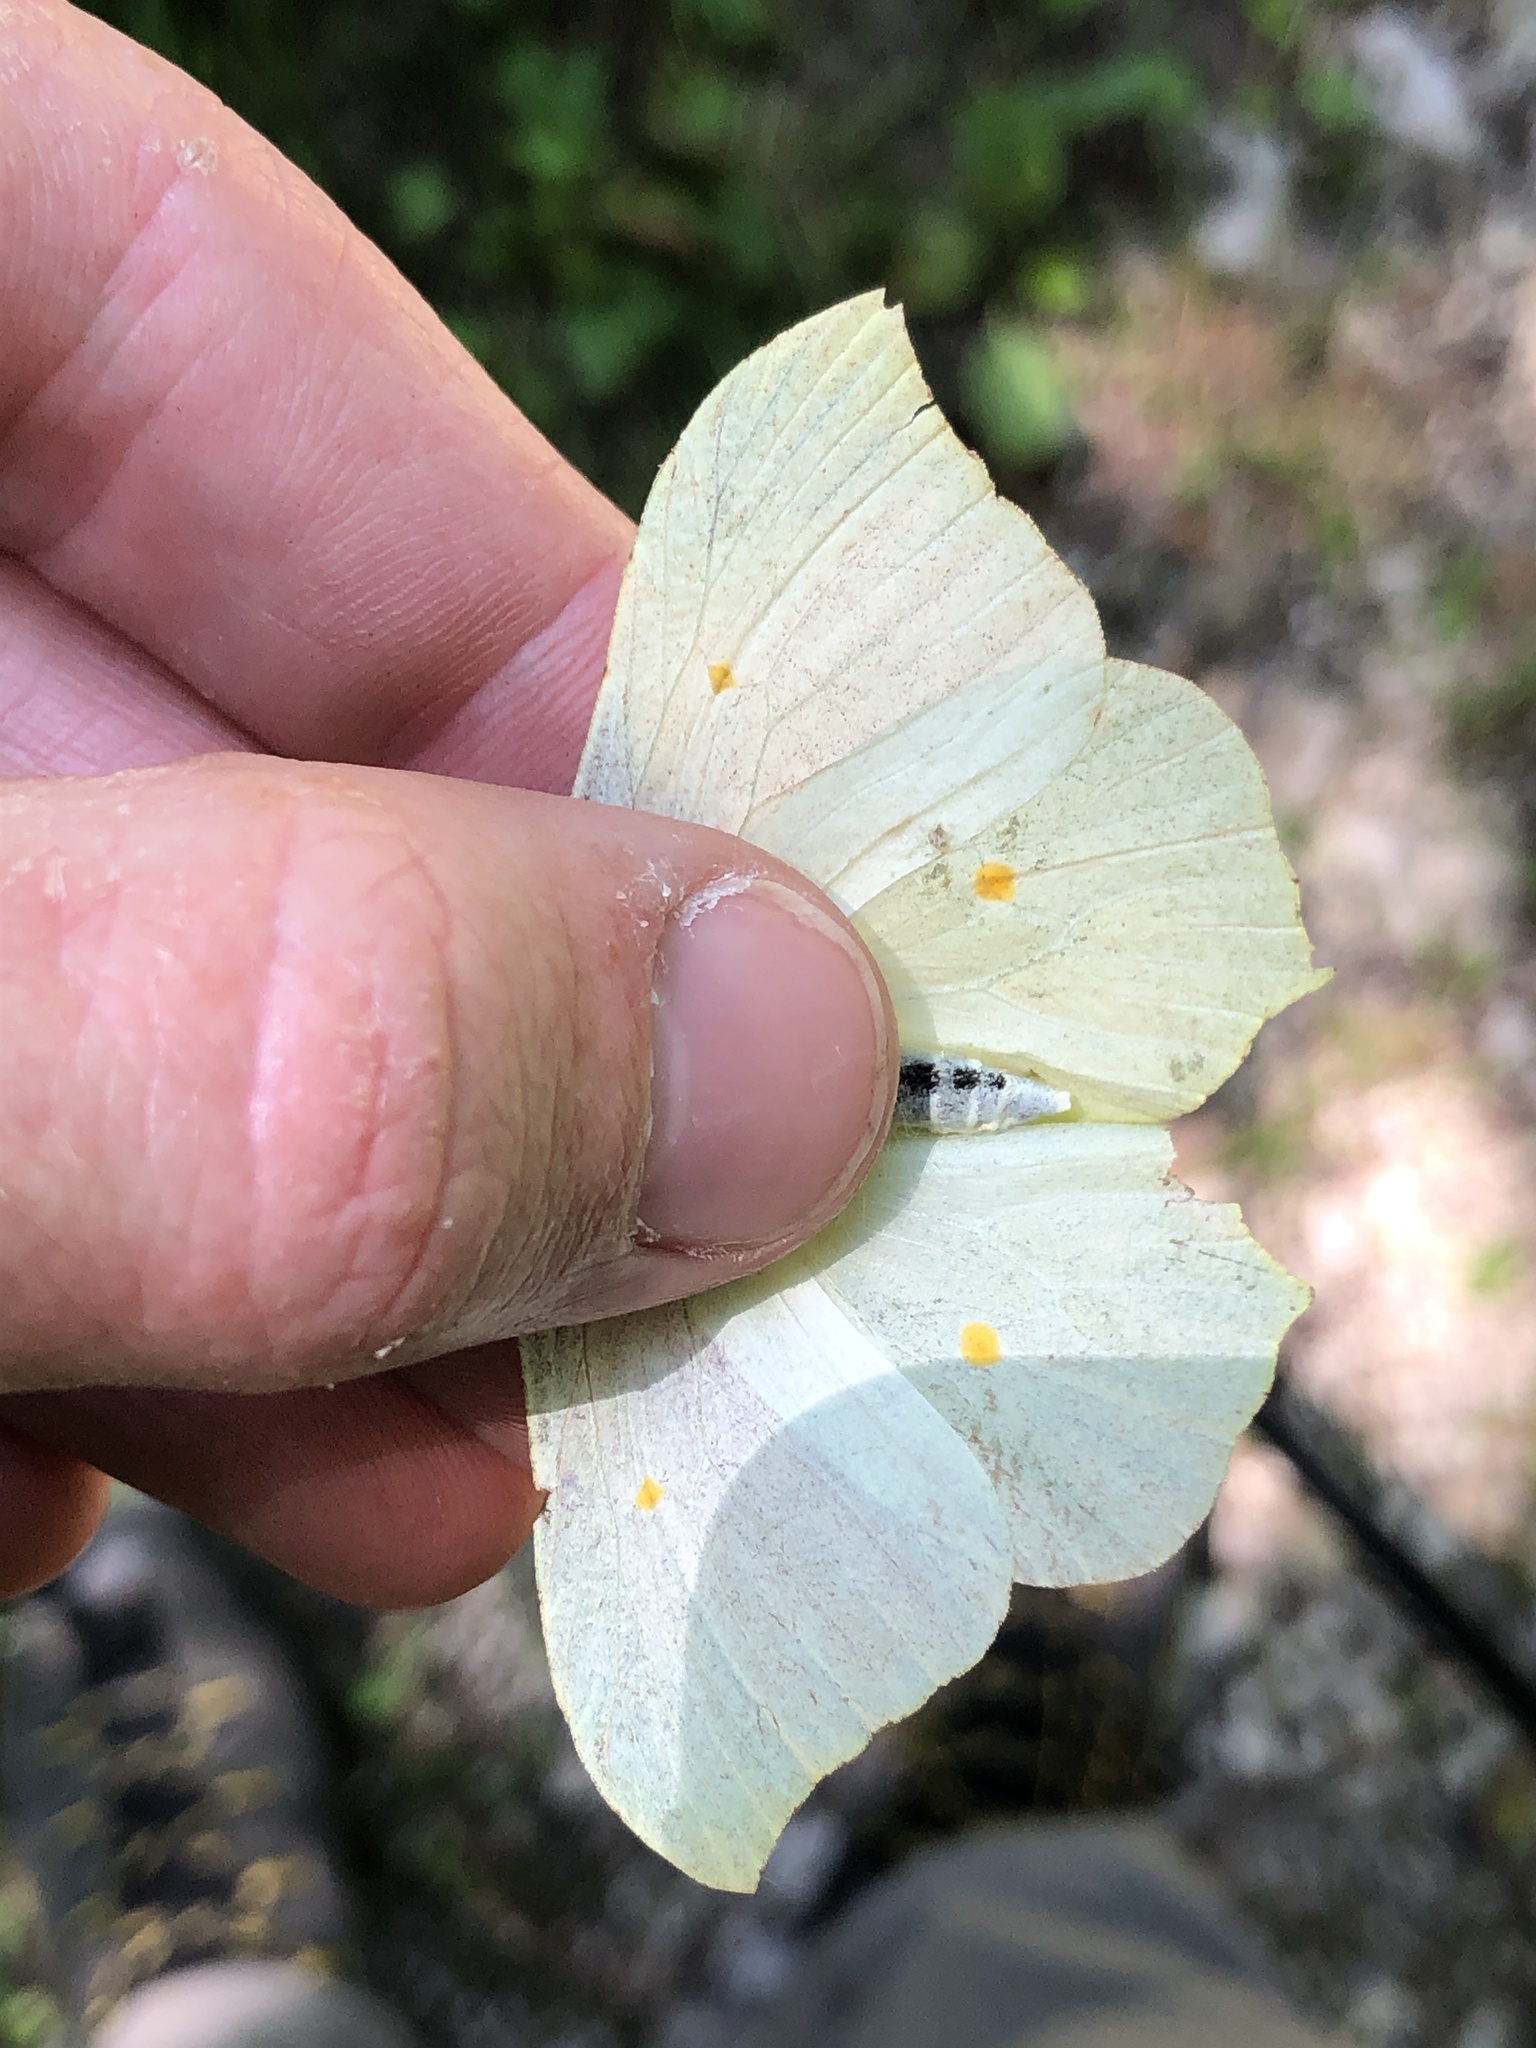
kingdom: Animalia
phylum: Arthropoda
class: Insecta
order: Lepidoptera
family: Pieridae
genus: Gonepteryx
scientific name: Gonepteryx rhamni
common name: Brimstone
